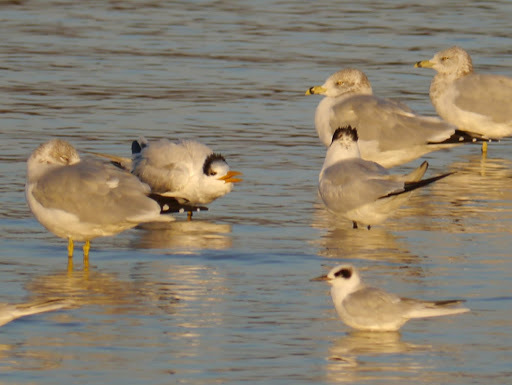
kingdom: Animalia
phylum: Chordata
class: Aves
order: Charadriiformes
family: Laridae
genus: Thalasseus
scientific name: Thalasseus maximus
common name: Royal tern
